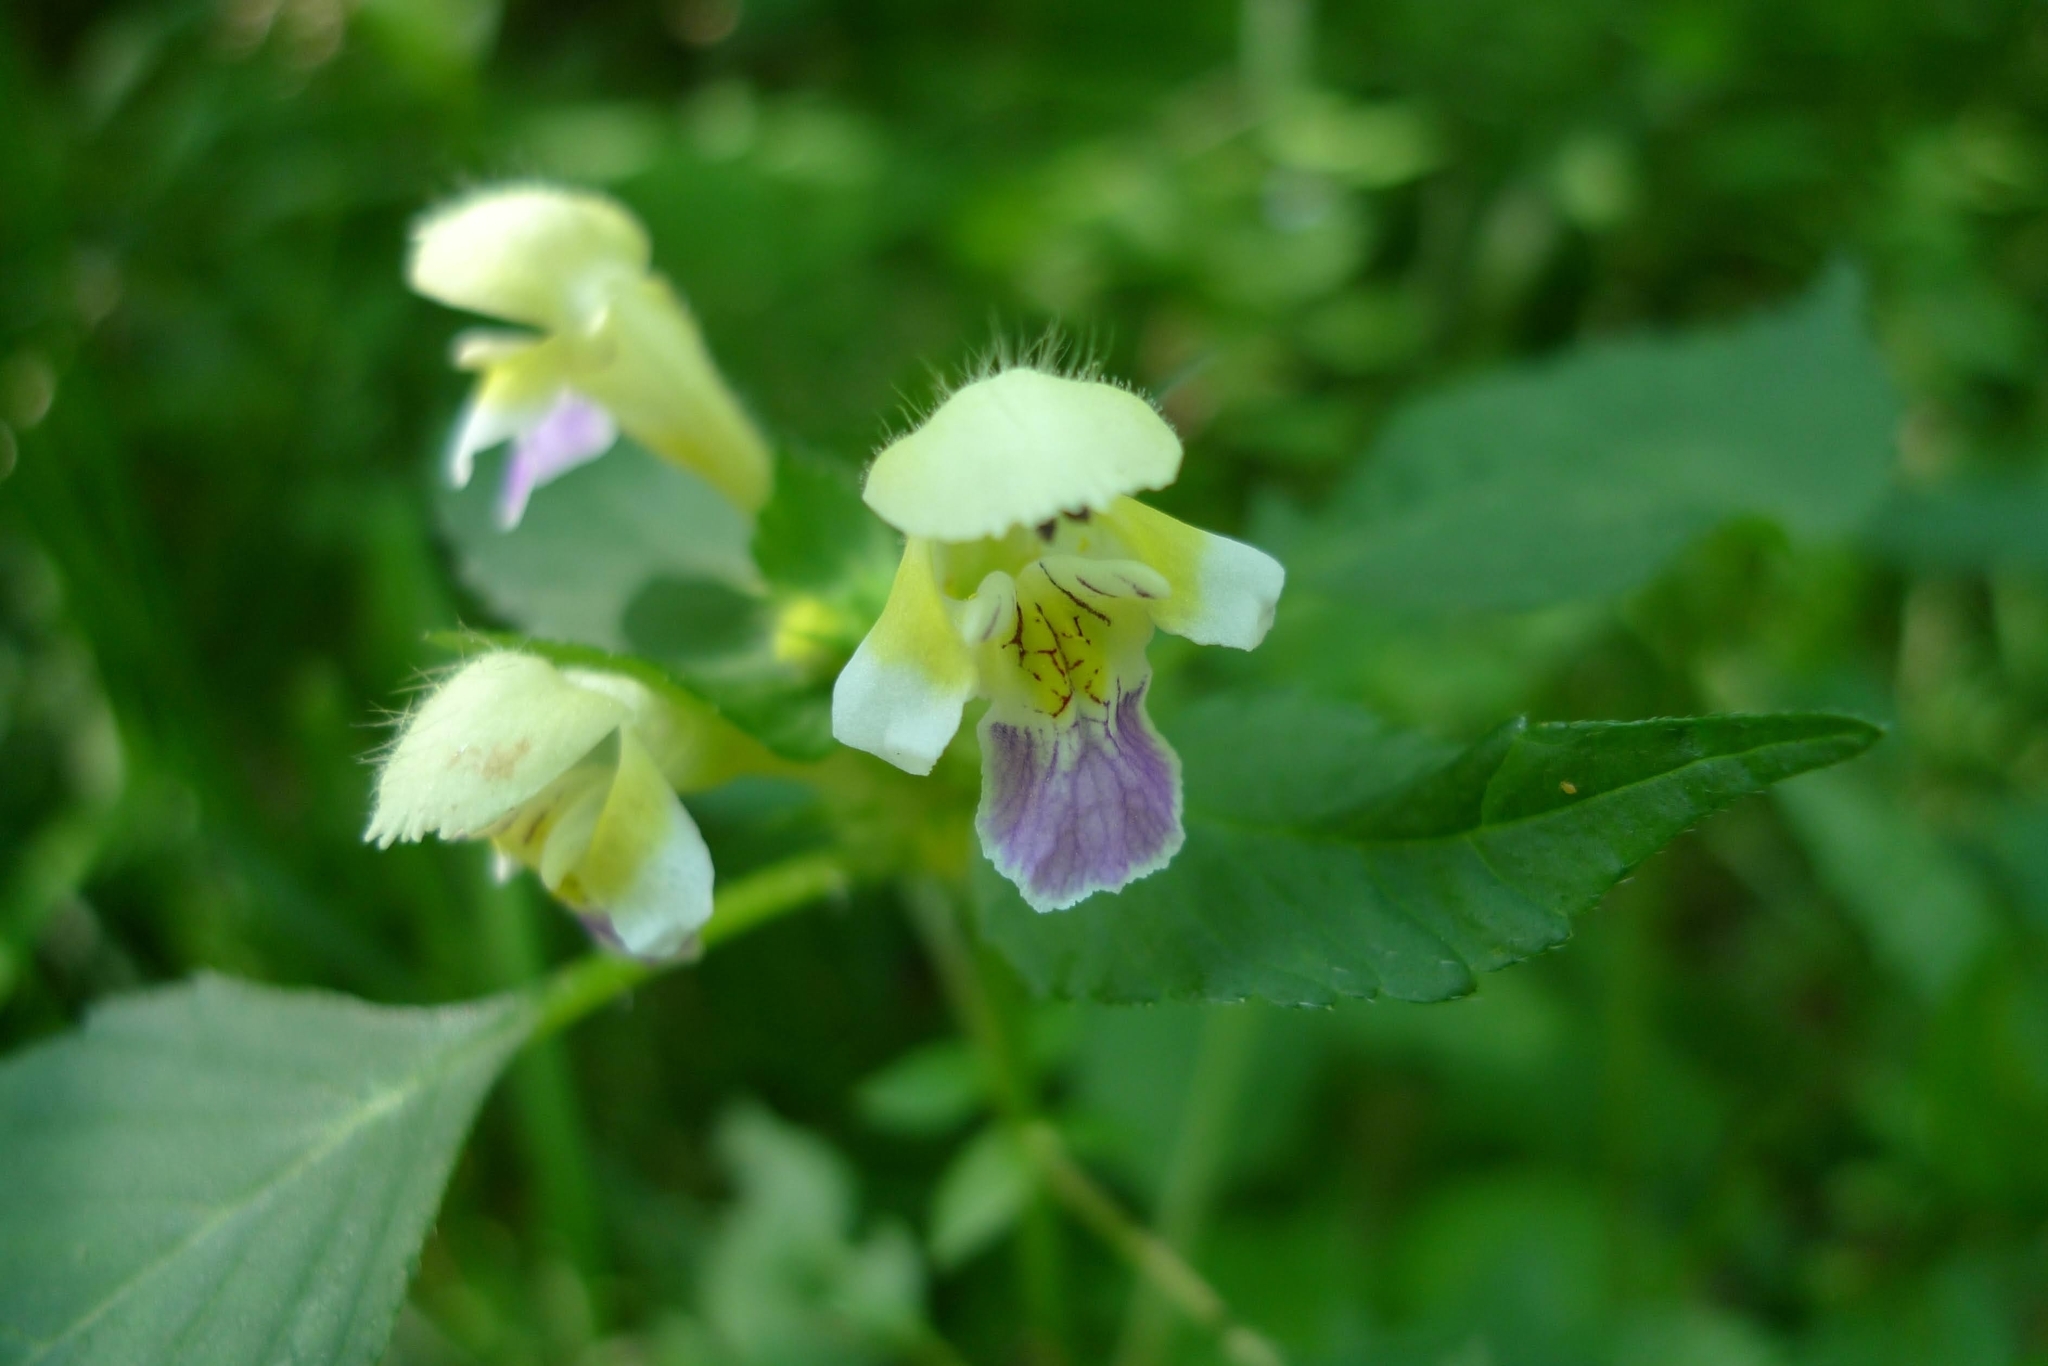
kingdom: Plantae
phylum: Tracheophyta
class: Magnoliopsida
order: Lamiales
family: Lamiaceae
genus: Galeopsis
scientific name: Galeopsis speciosa
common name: Large-flowered hemp-nettle
